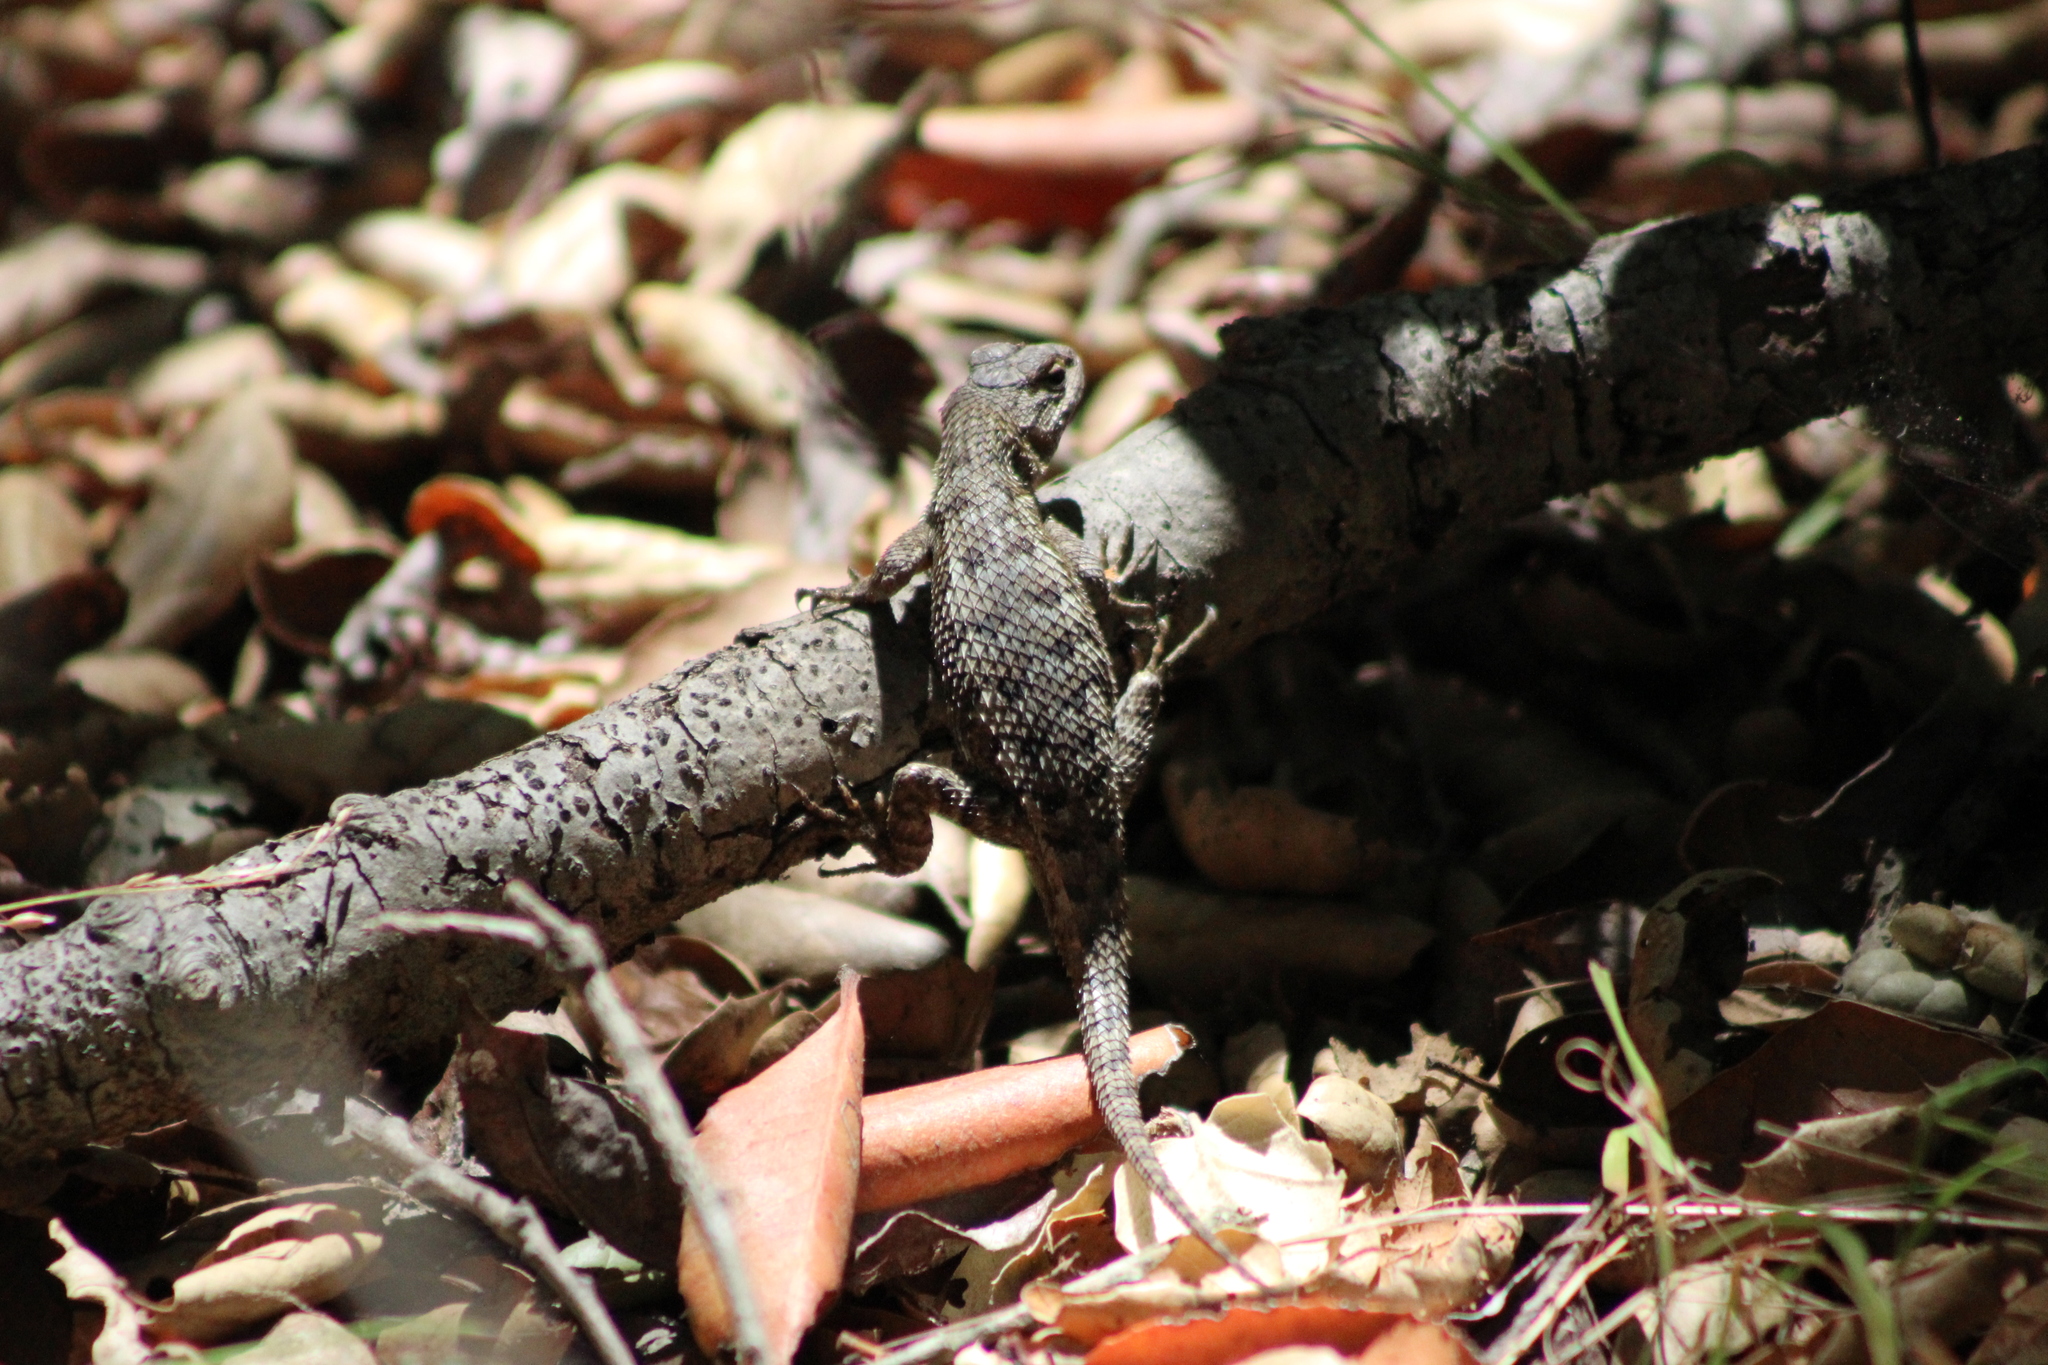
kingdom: Animalia
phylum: Chordata
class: Squamata
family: Phrynosomatidae
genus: Sceloporus
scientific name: Sceloporus occidentalis
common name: Western fence lizard
